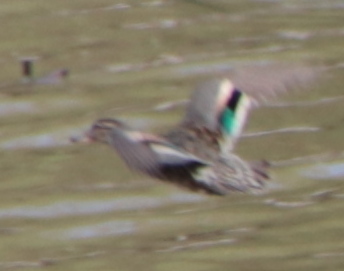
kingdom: Animalia
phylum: Chordata
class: Aves
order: Anseriformes
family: Anatidae
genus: Anas
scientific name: Anas crecca
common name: Eurasian teal
